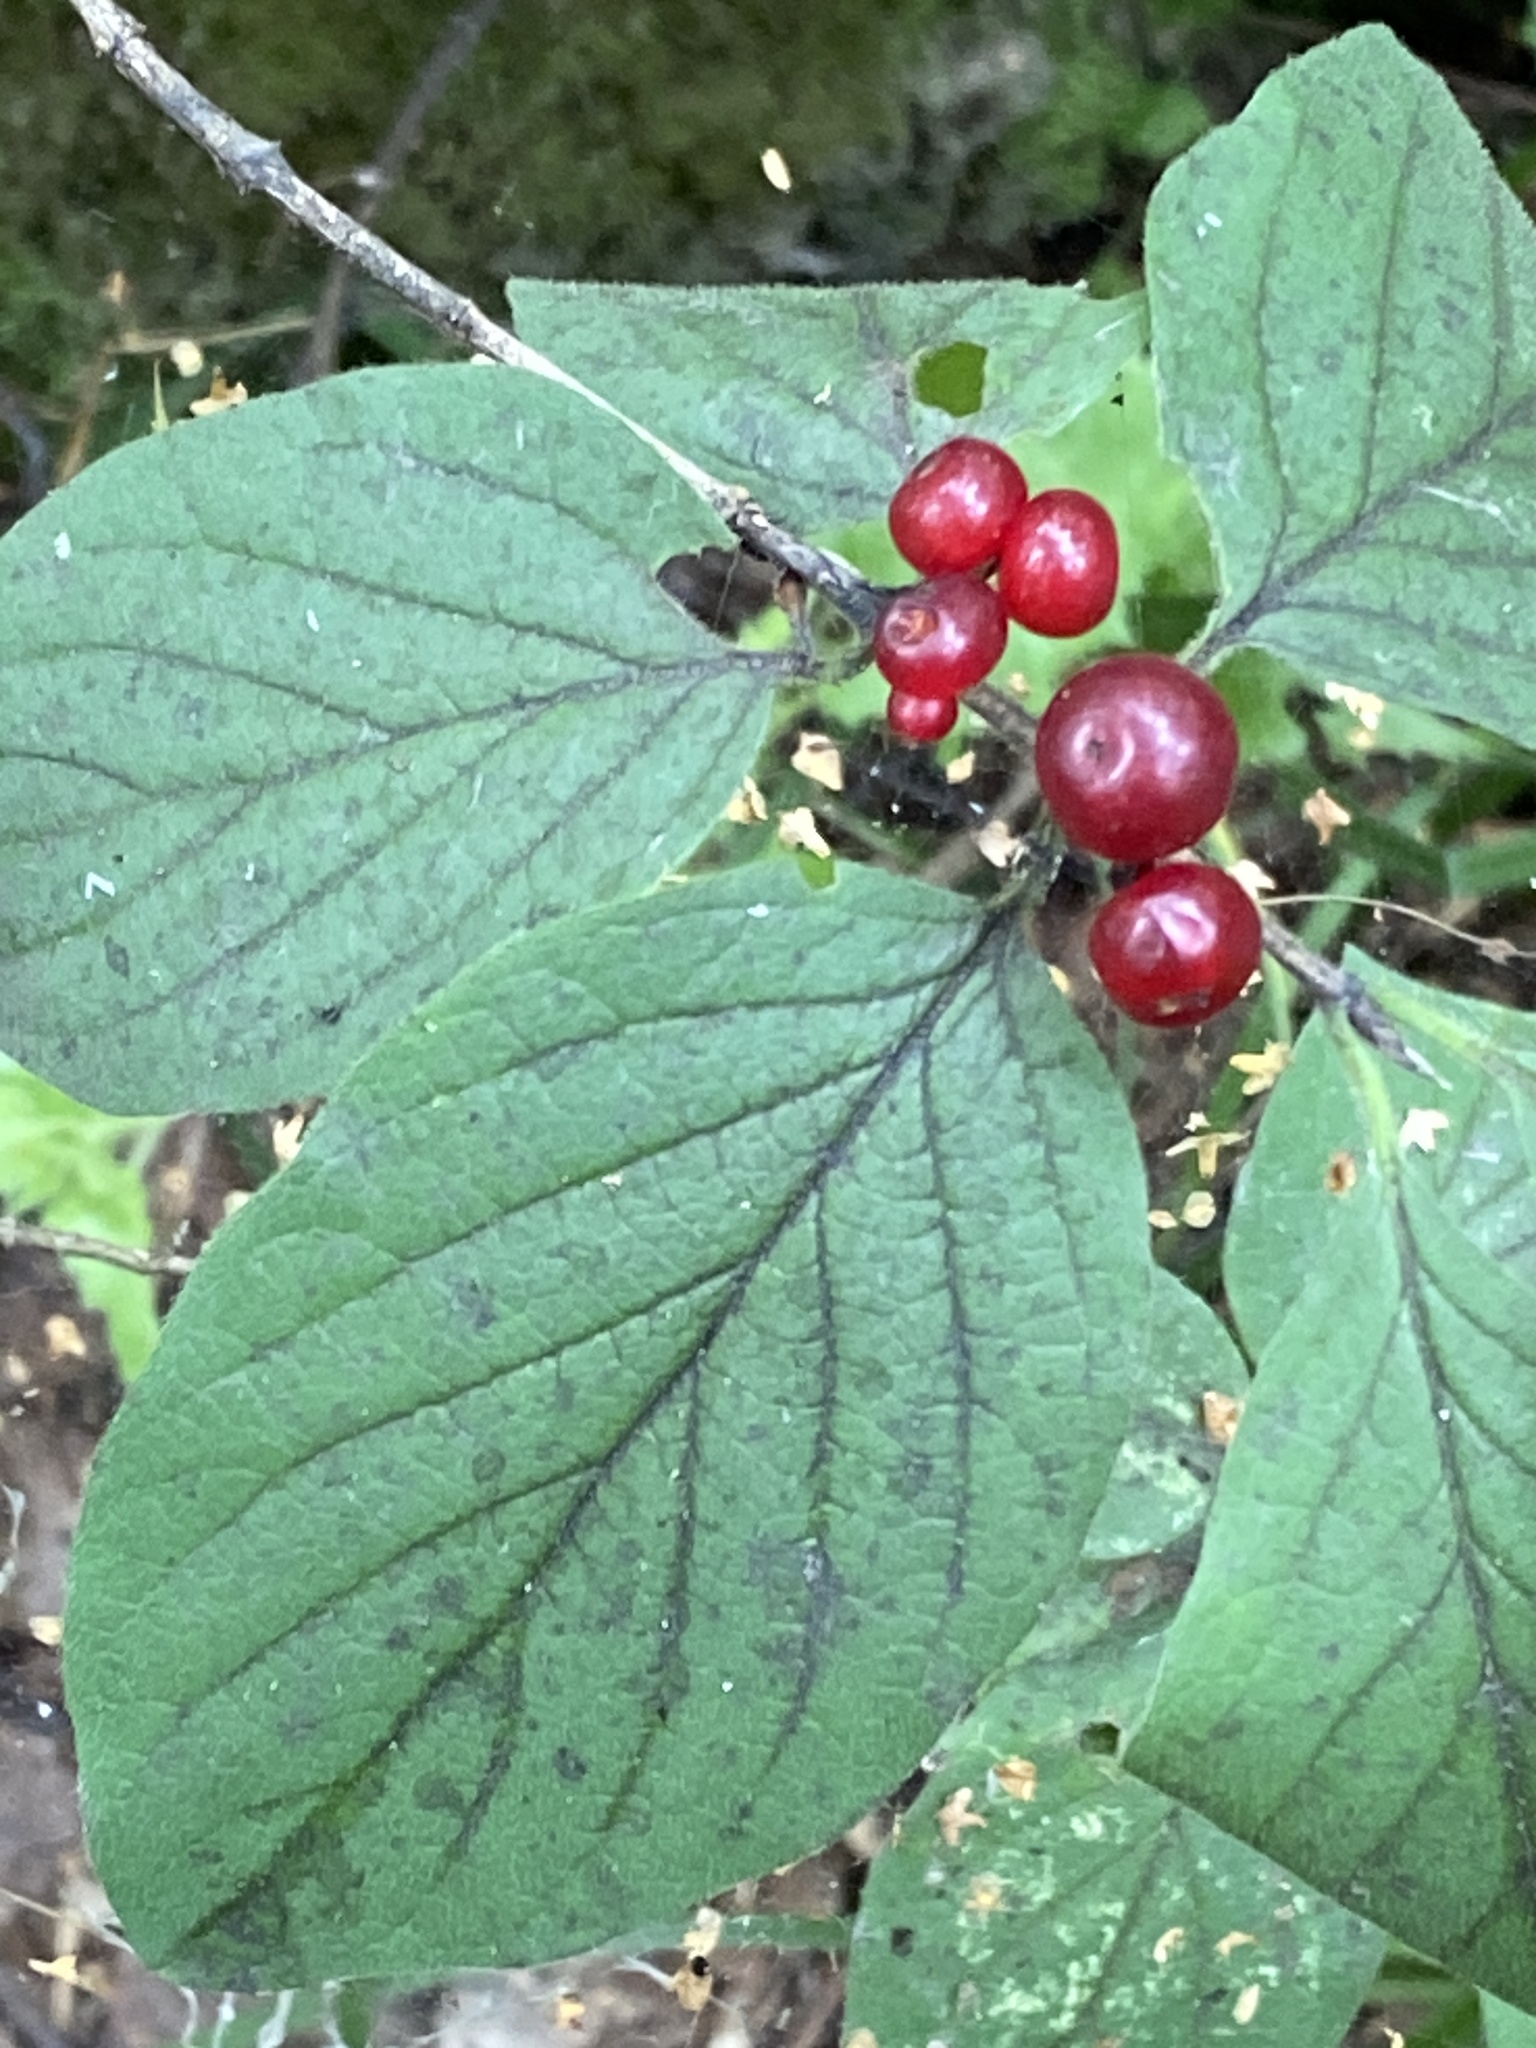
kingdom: Plantae
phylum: Tracheophyta
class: Magnoliopsida
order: Dipsacales
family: Caprifoliaceae
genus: Lonicera
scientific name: Lonicera xylosteum
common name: Fly honeysuckle
